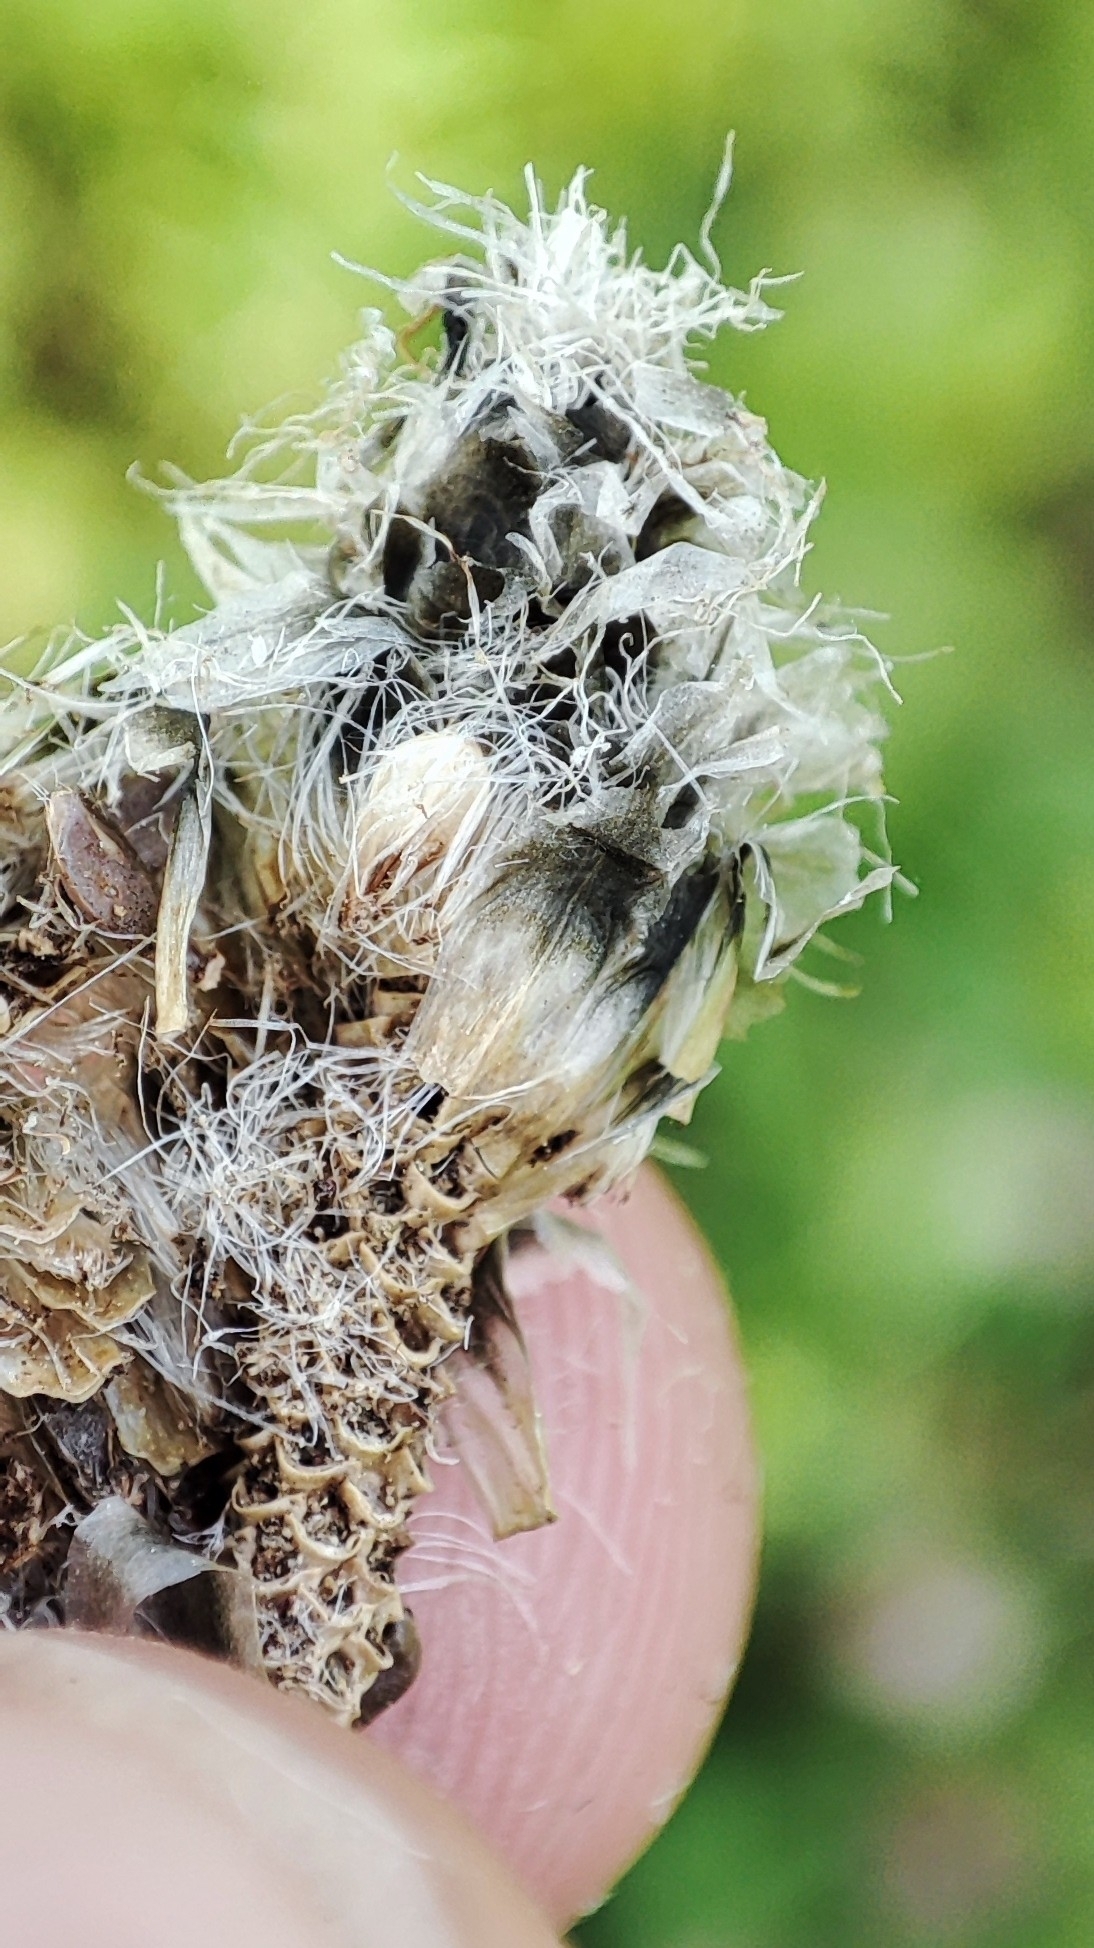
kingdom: Plantae
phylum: Tracheophyta
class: Liliopsida
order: Poales
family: Cyperaceae
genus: Eriophorum
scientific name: Eriophorum vaginatum
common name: Hare's-tail cottongrass
